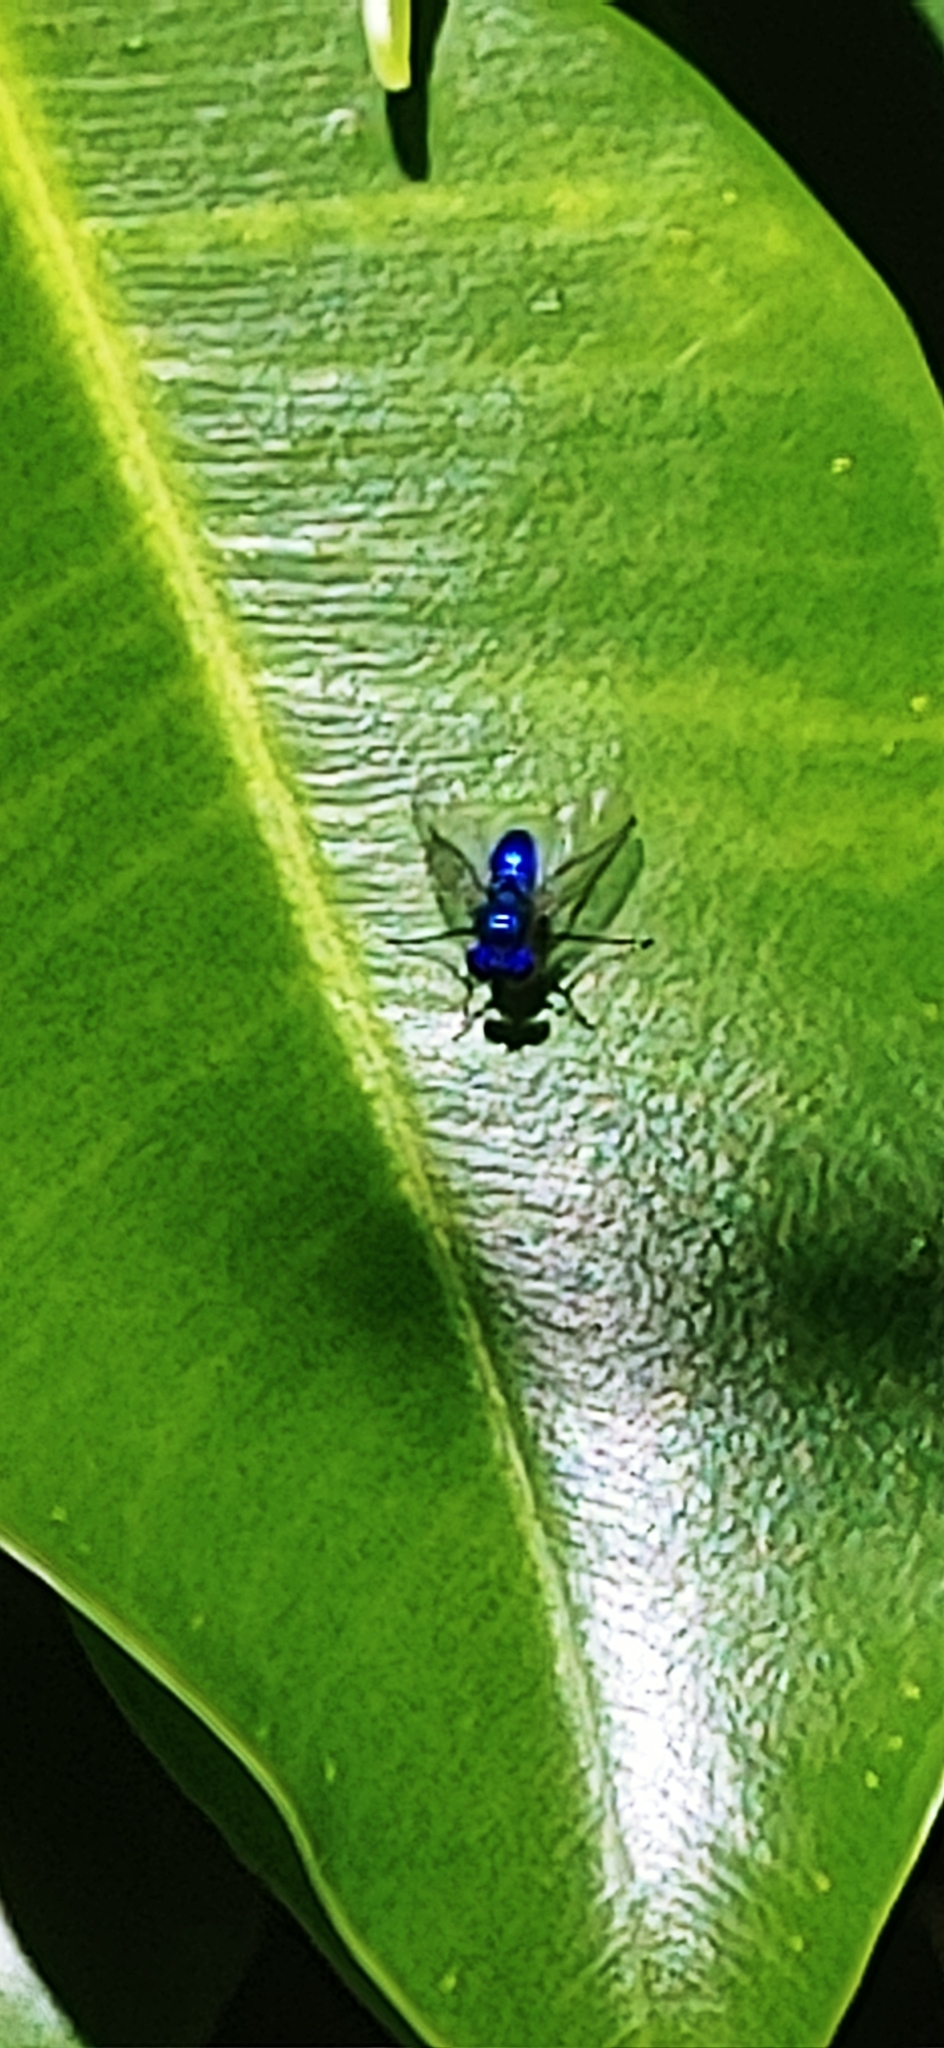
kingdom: Animalia
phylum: Arthropoda
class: Insecta
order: Diptera
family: Dolichopodidae
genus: Condylostylus
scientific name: Condylostylus mundus
